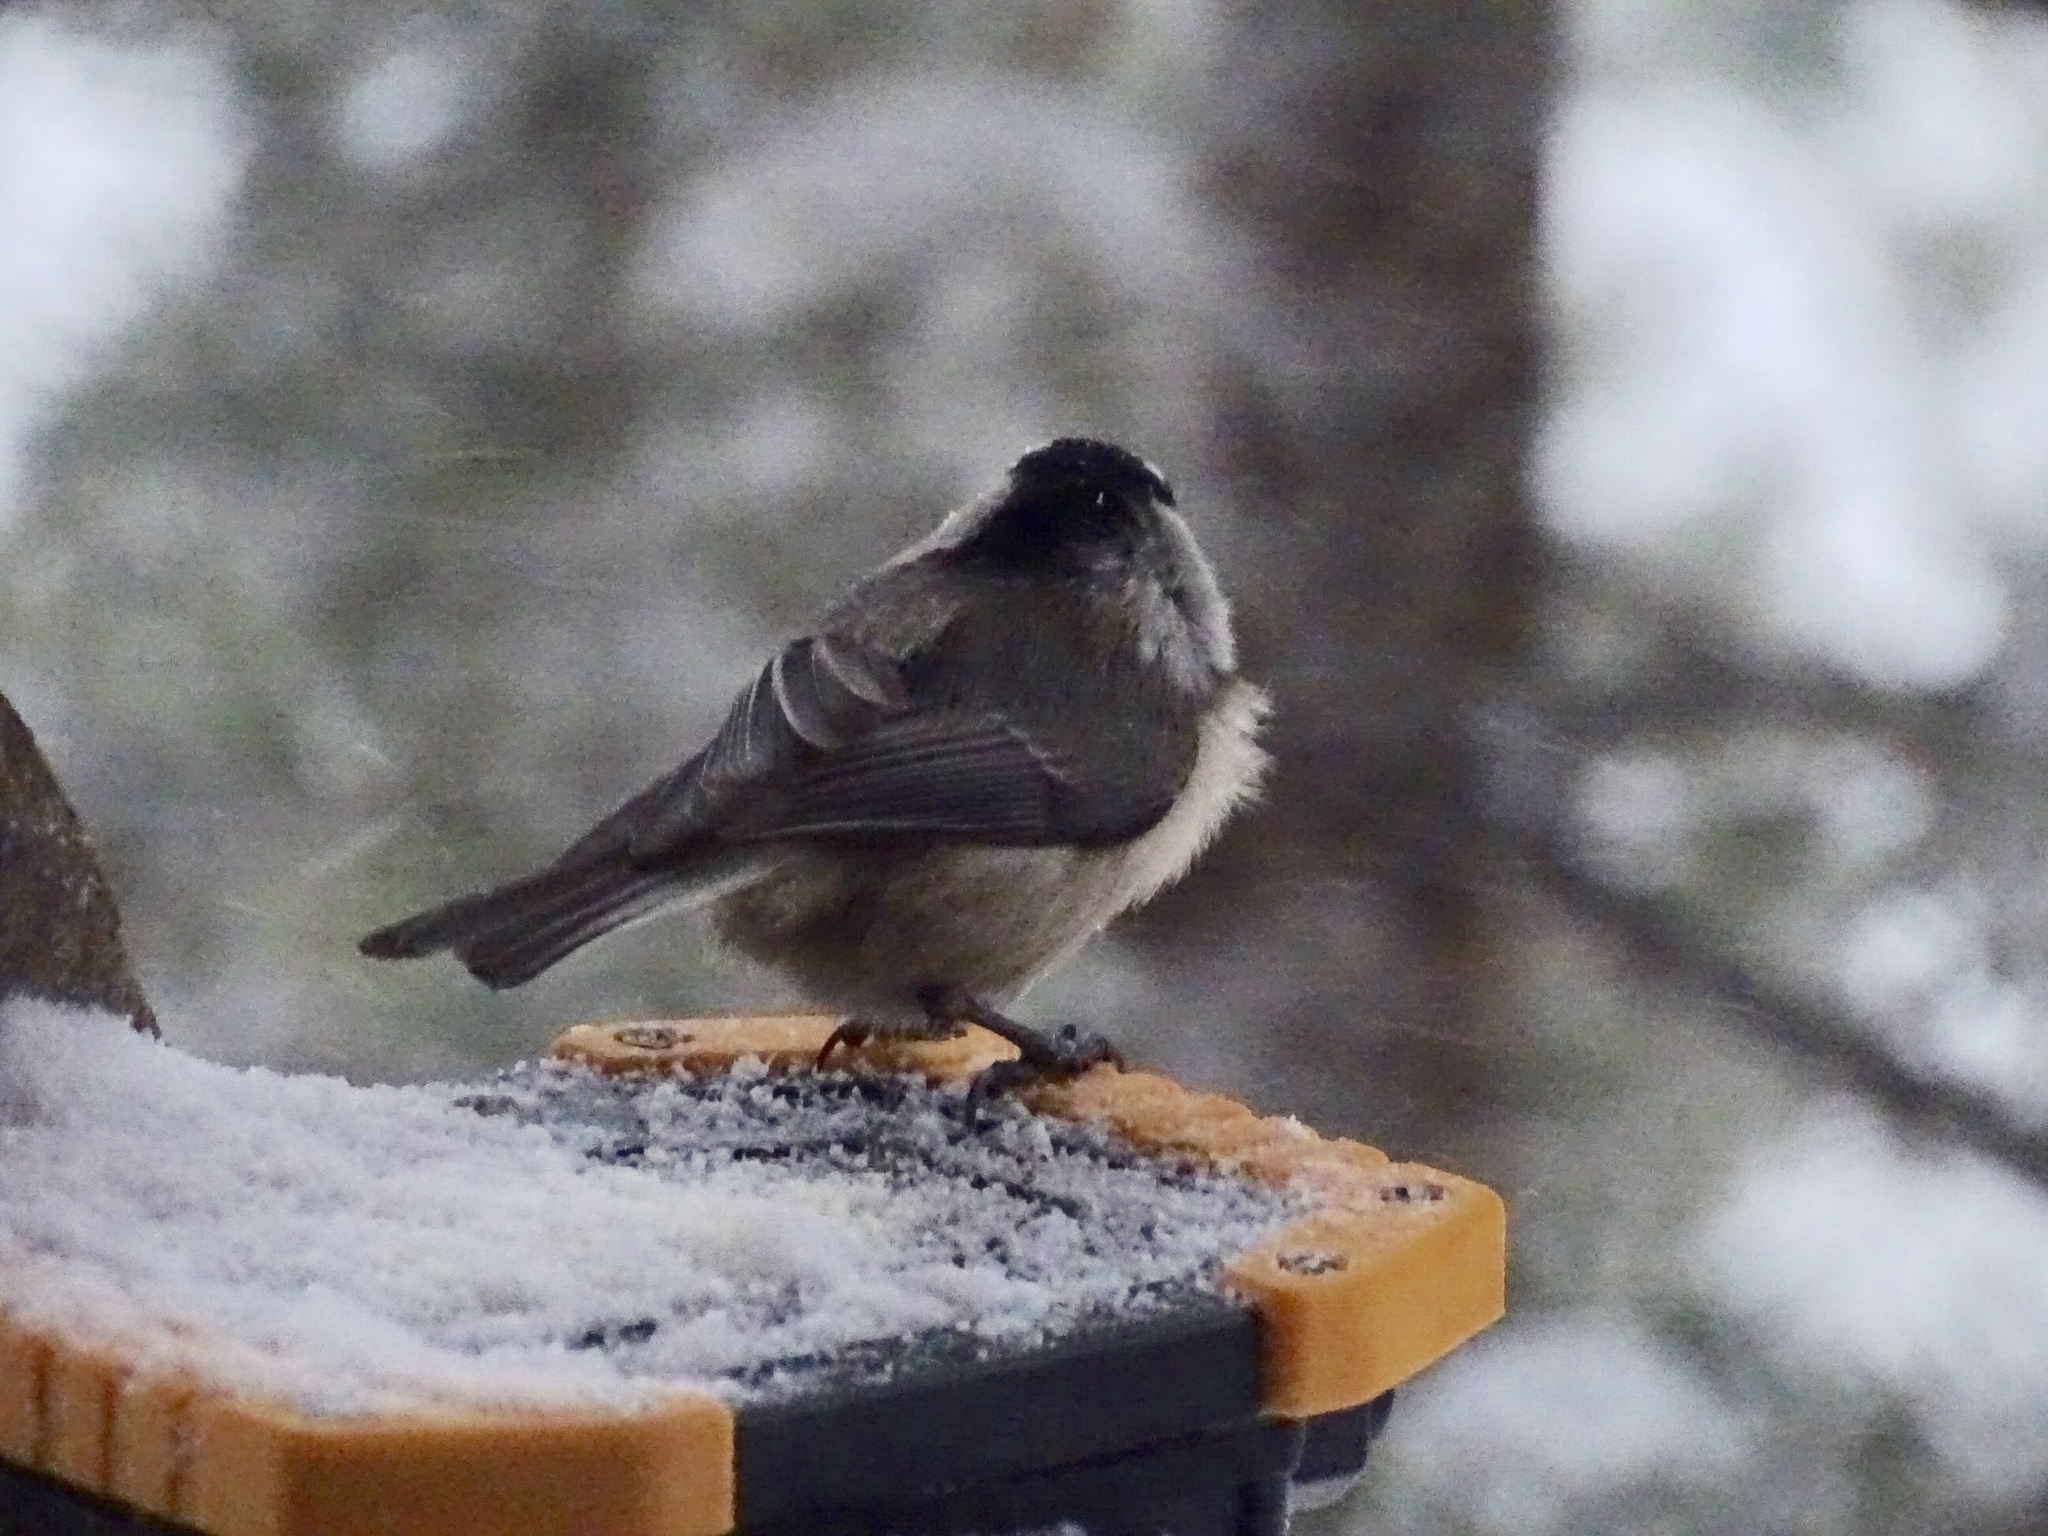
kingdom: Animalia
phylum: Chordata
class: Aves
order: Passeriformes
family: Paridae
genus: Poecile
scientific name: Poecile gambeli
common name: Mountain chickadee
